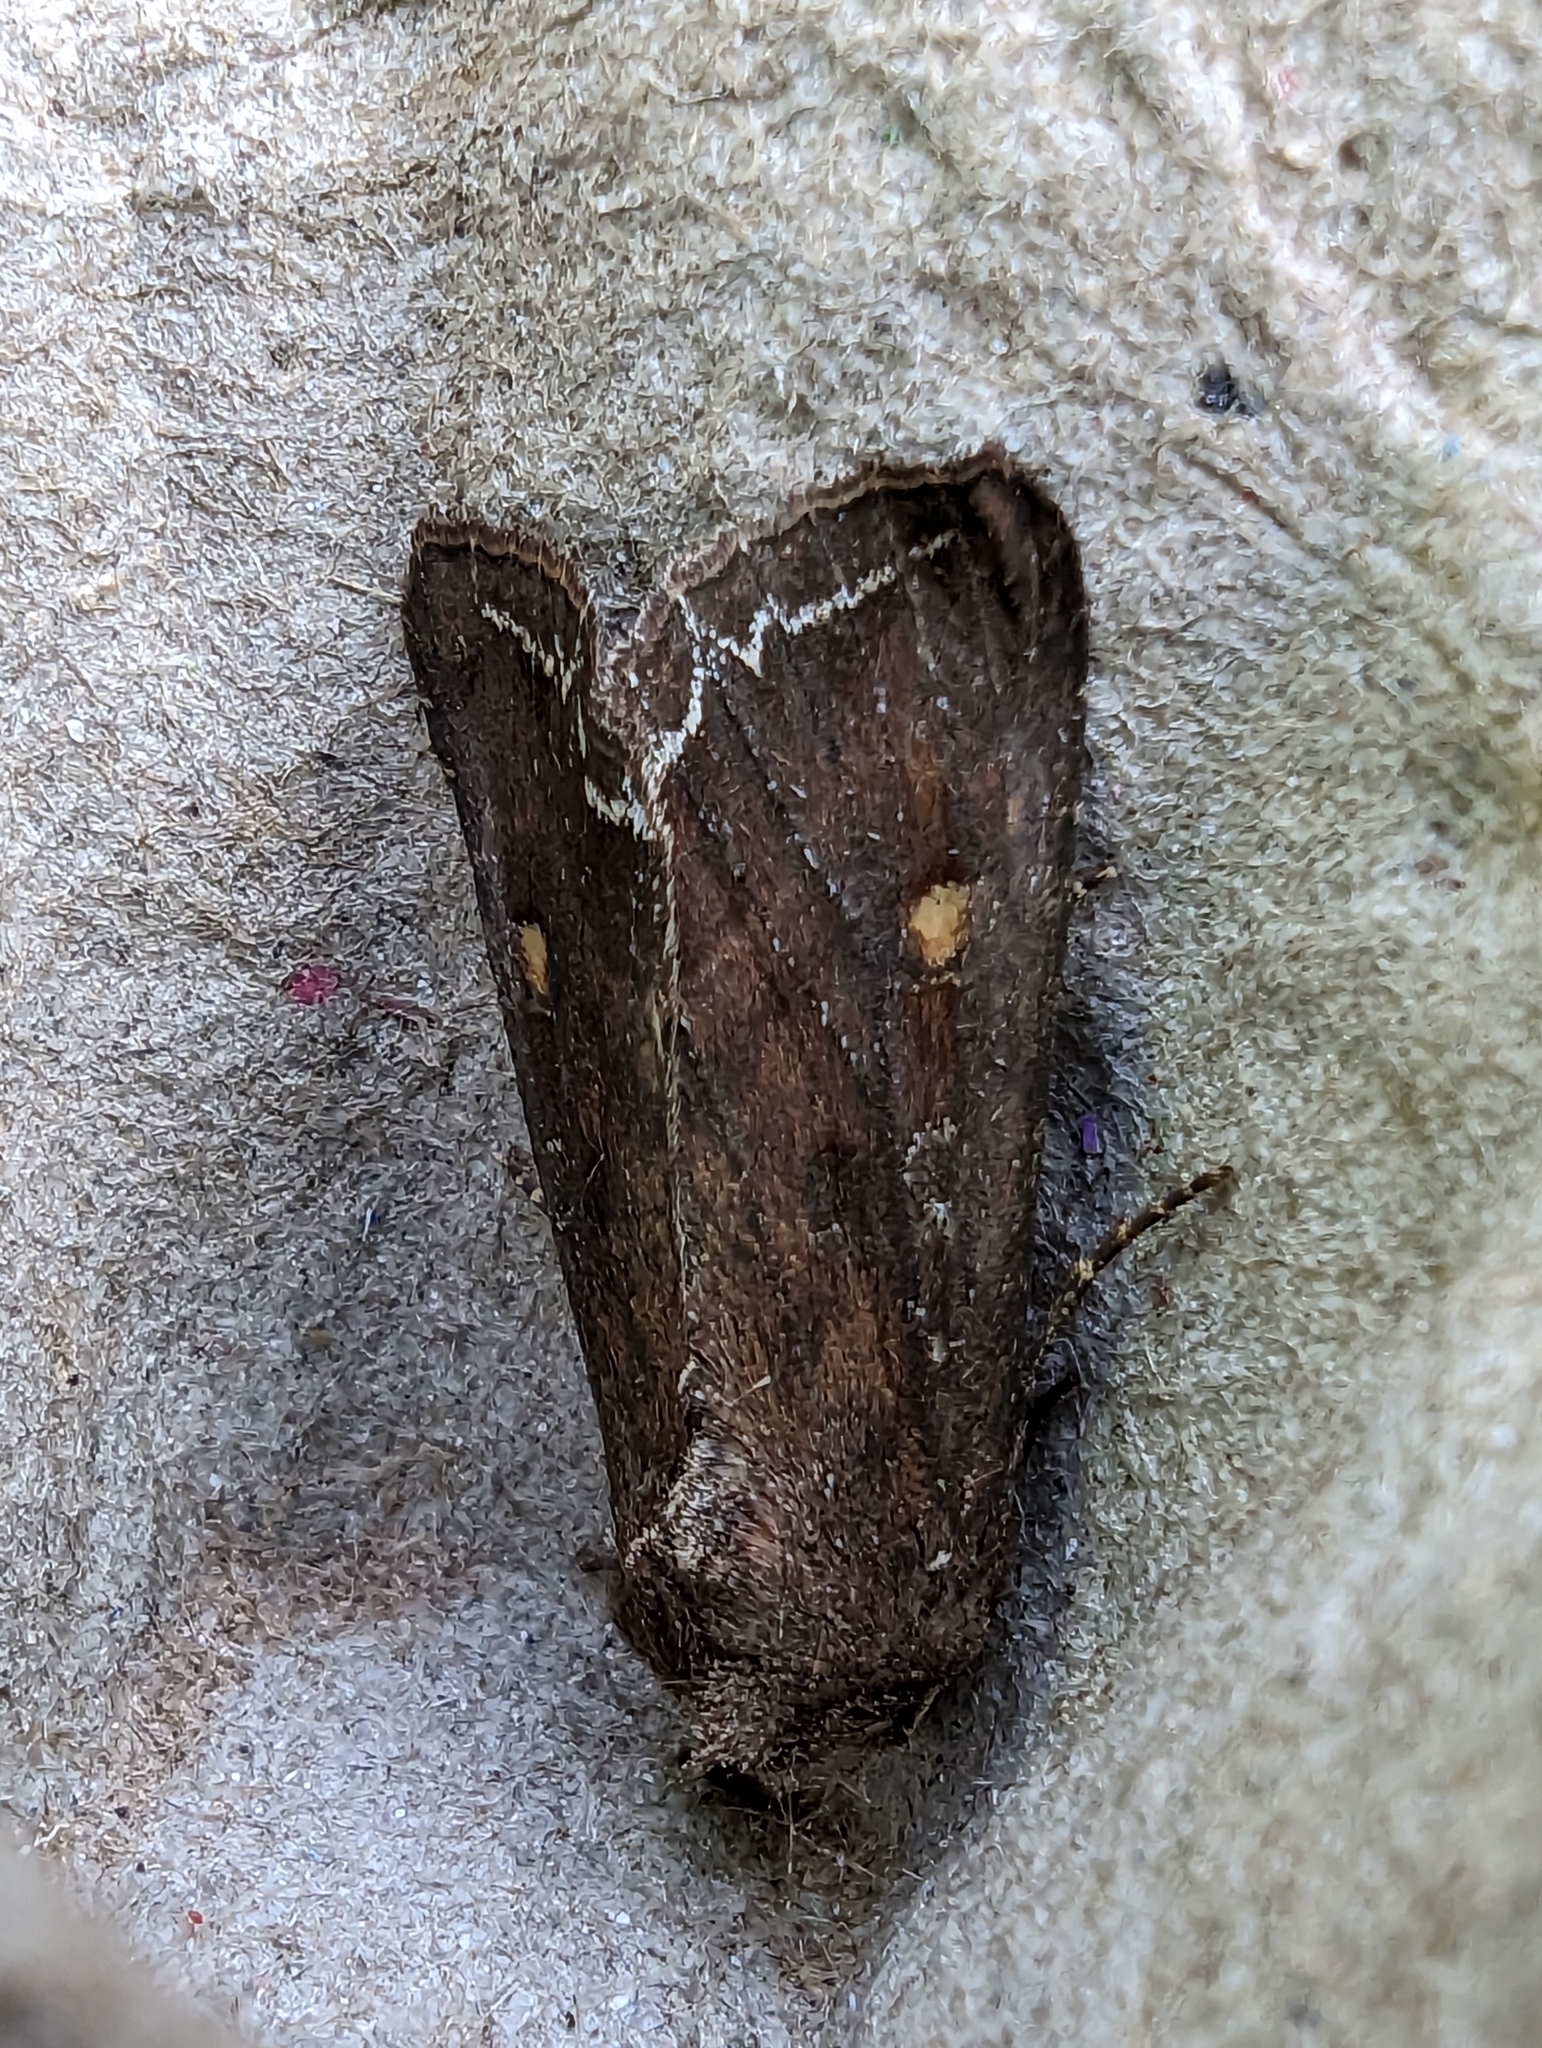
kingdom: Animalia
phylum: Arthropoda
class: Insecta
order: Lepidoptera
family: Noctuidae
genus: Lacanobia
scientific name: Lacanobia oleracea
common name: Bright-line brown-eye
